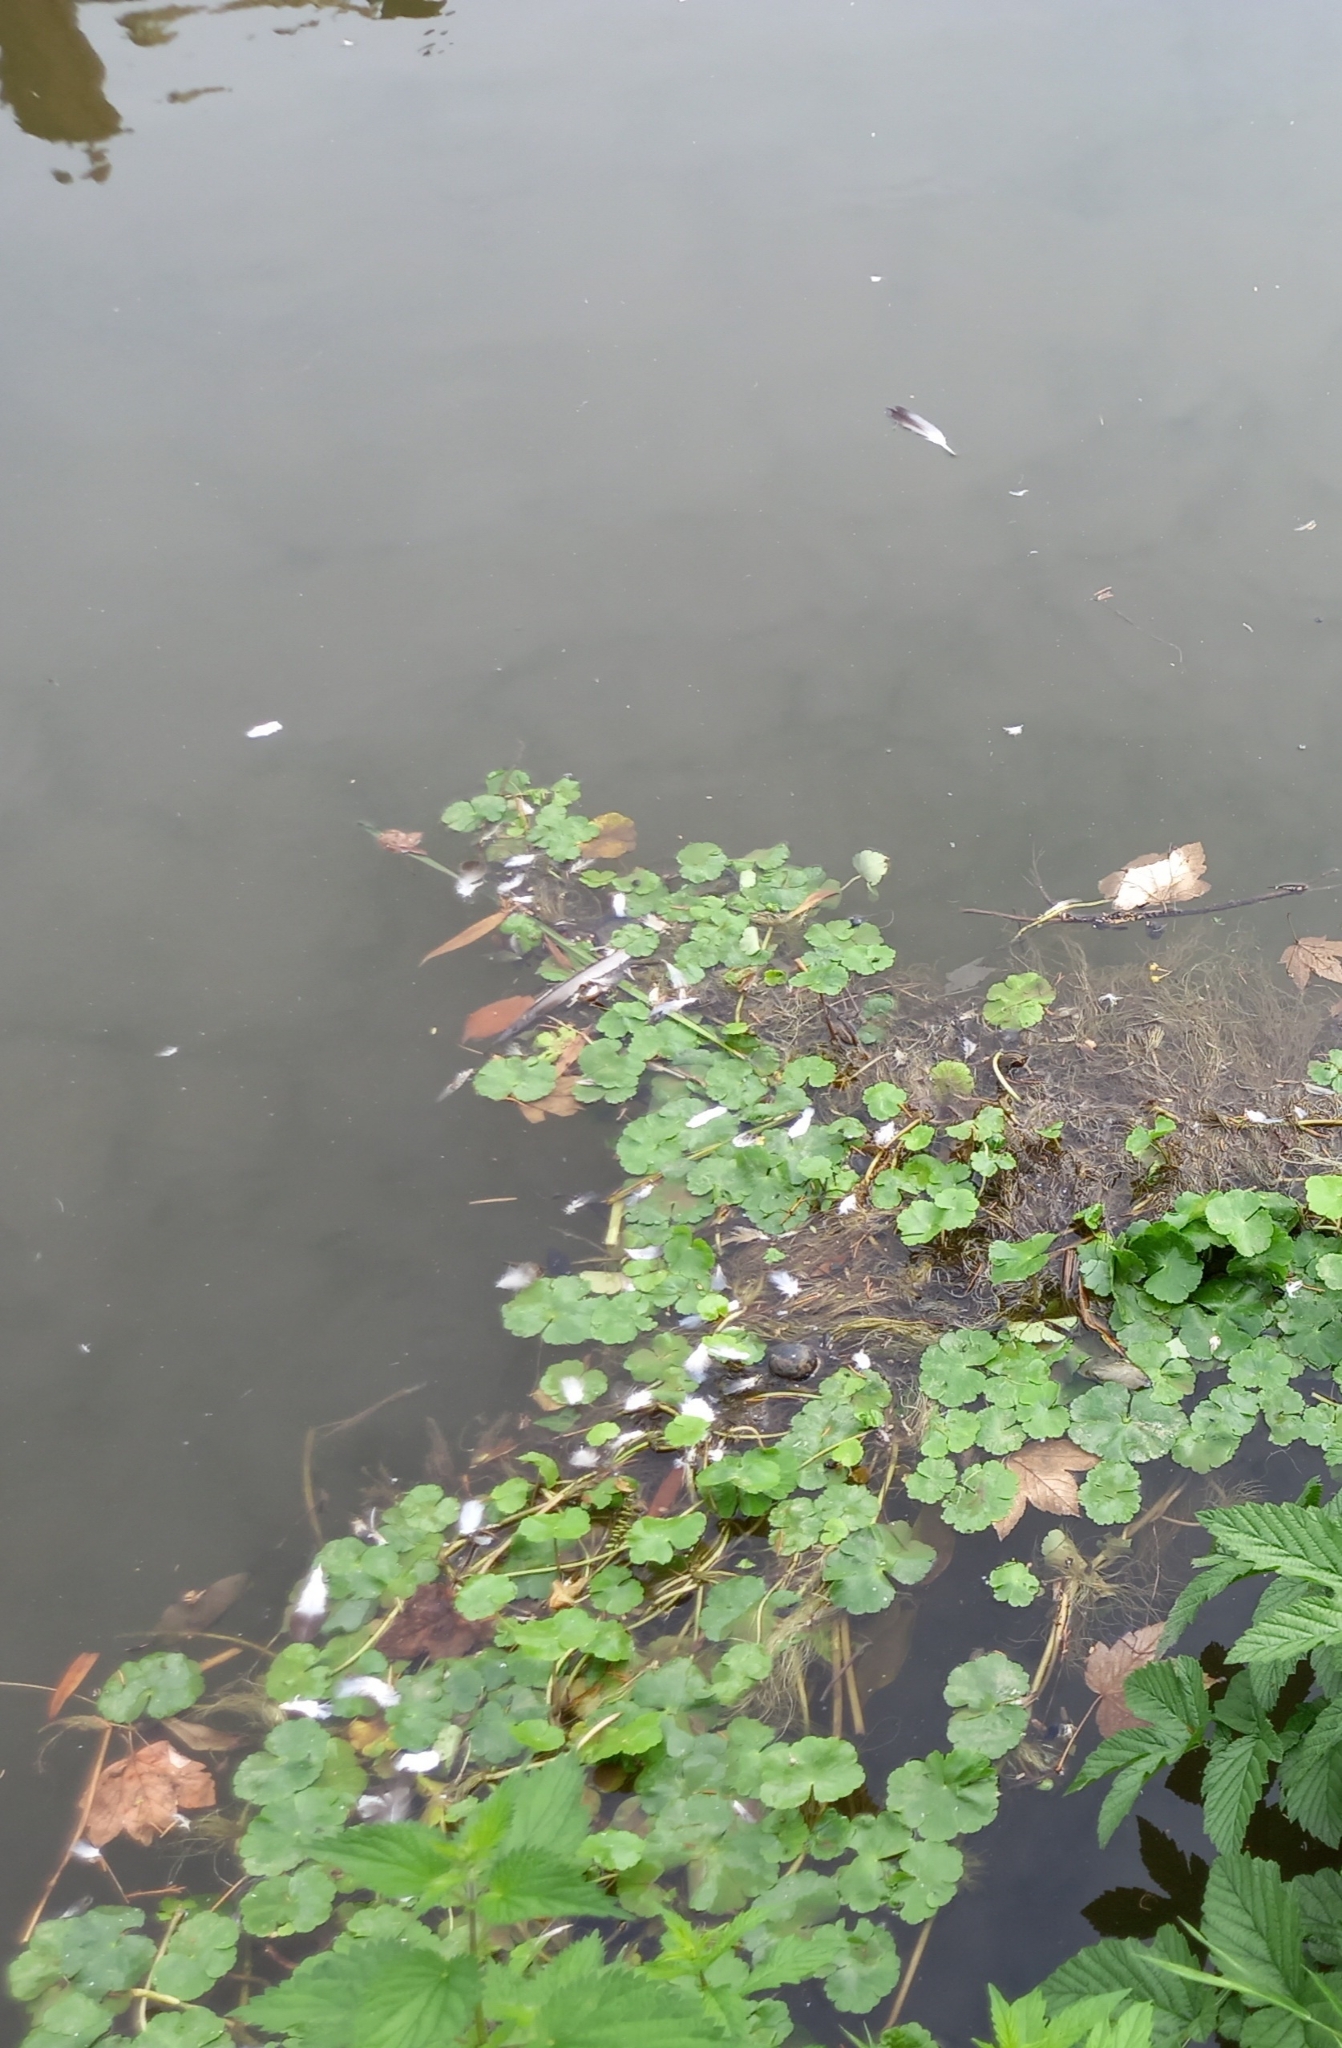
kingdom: Plantae
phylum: Tracheophyta
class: Magnoliopsida
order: Apiales
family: Araliaceae
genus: Hydrocotyle
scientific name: Hydrocotyle ranunculoides
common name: Floating pennywort
